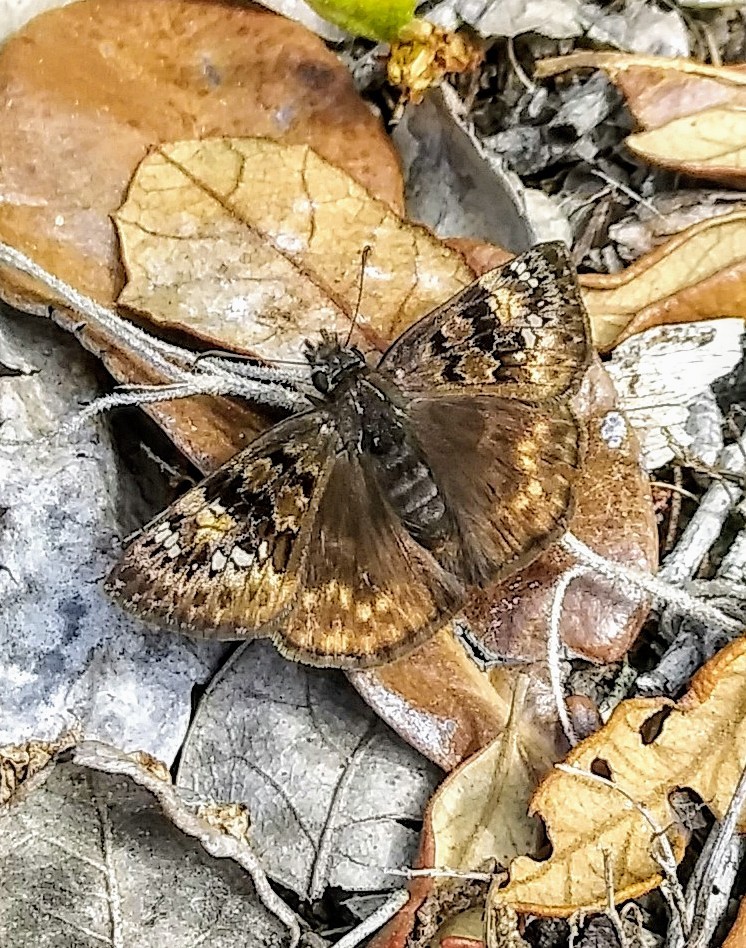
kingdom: Animalia
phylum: Arthropoda
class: Insecta
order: Lepidoptera
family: Hesperiidae
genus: Erynnis
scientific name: Erynnis horatius
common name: Horace's duskywing
